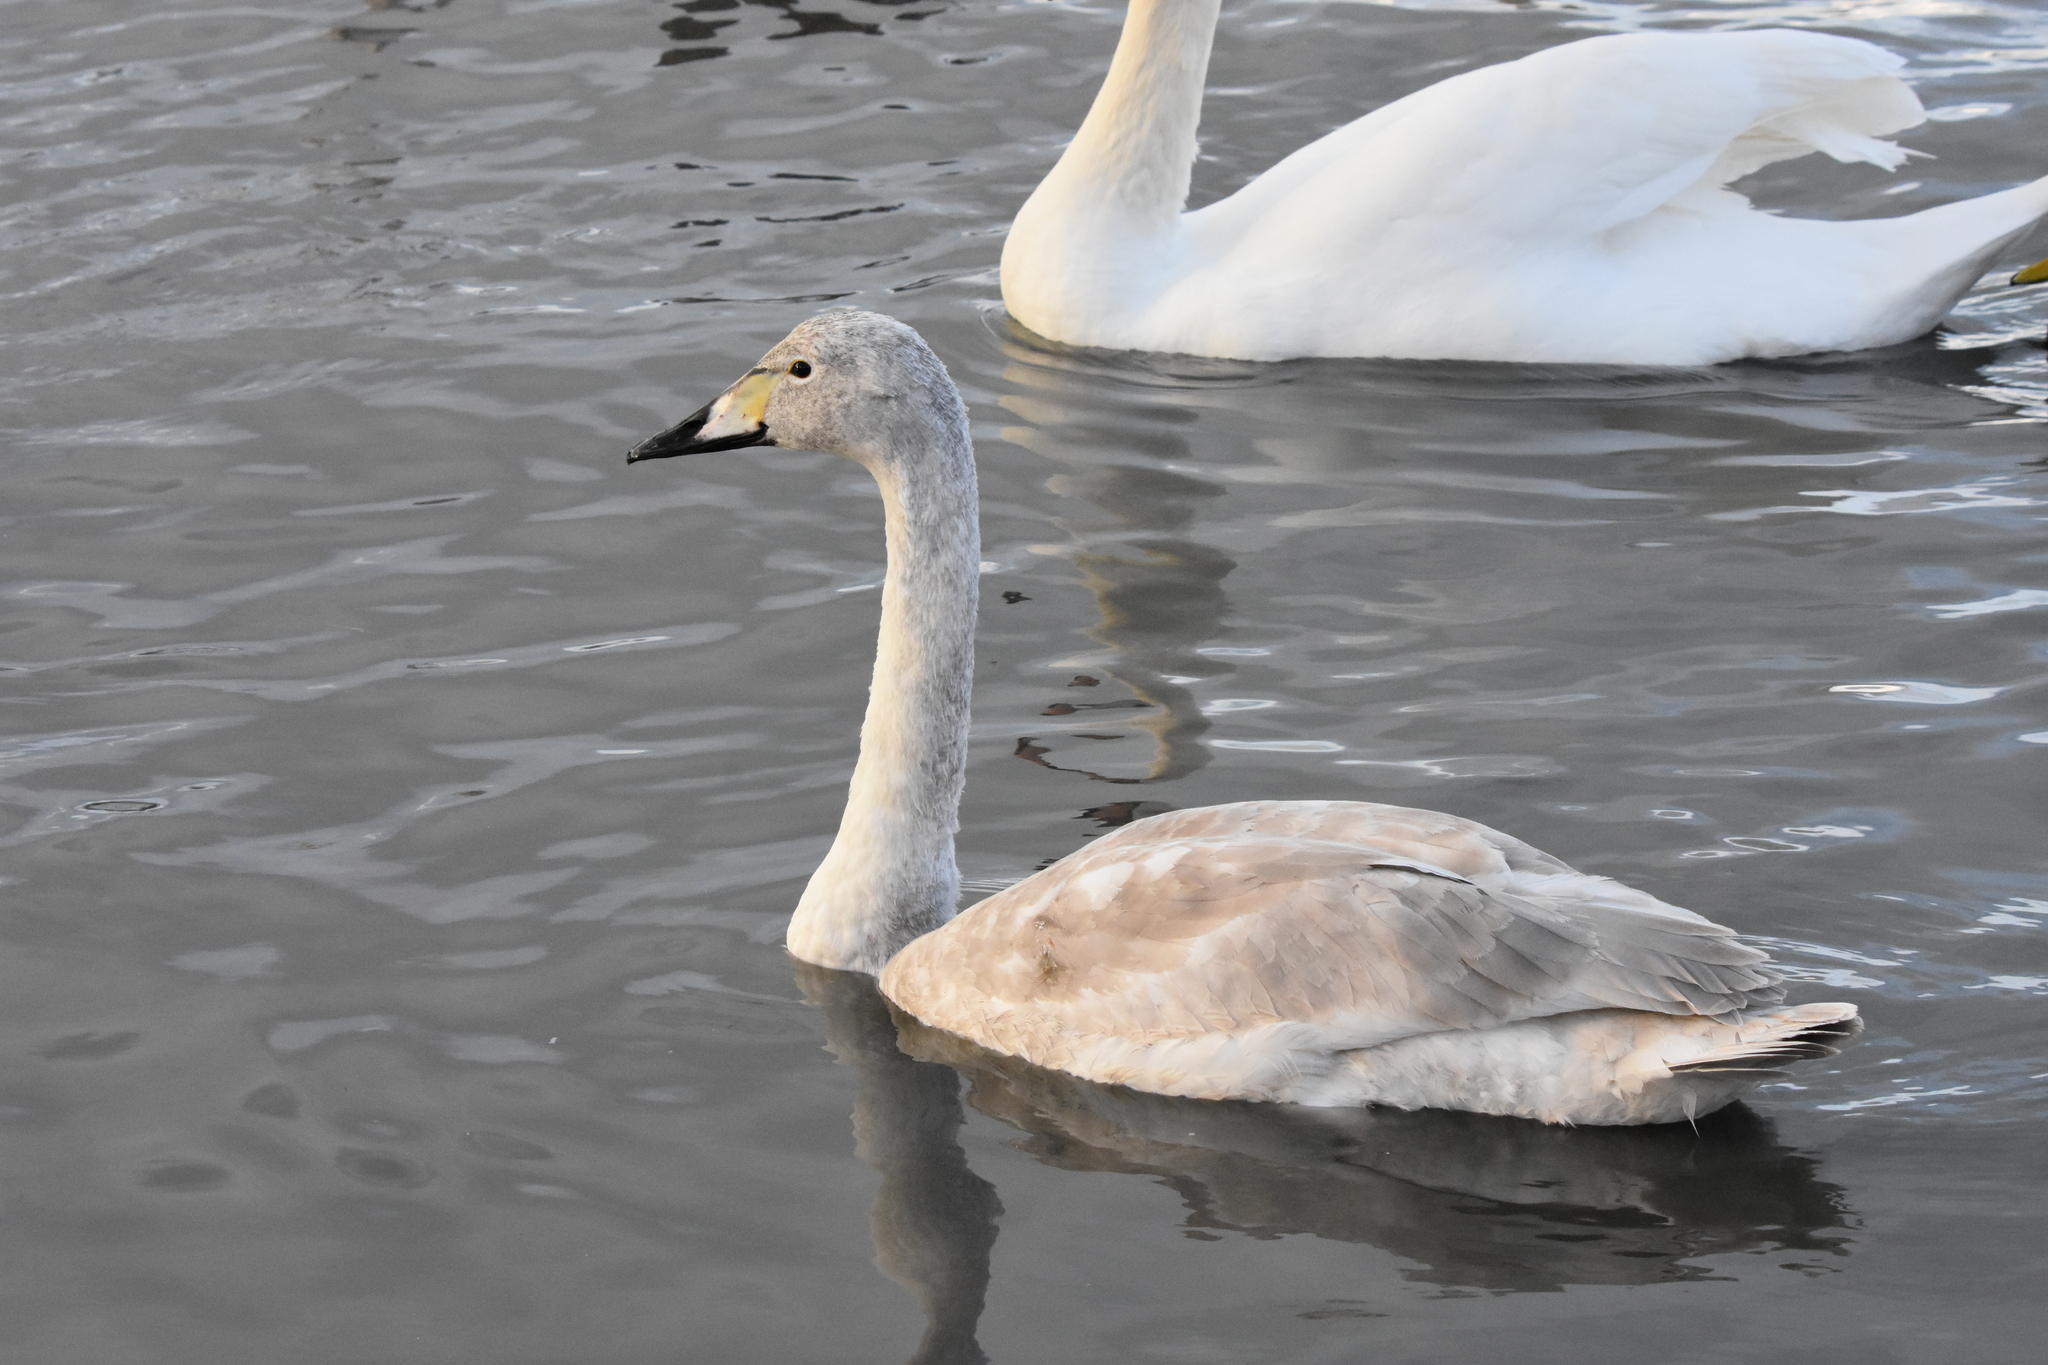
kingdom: Animalia
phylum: Chordata
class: Aves
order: Anseriformes
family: Anatidae
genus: Cygnus
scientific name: Cygnus cygnus
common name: Whooper swan
